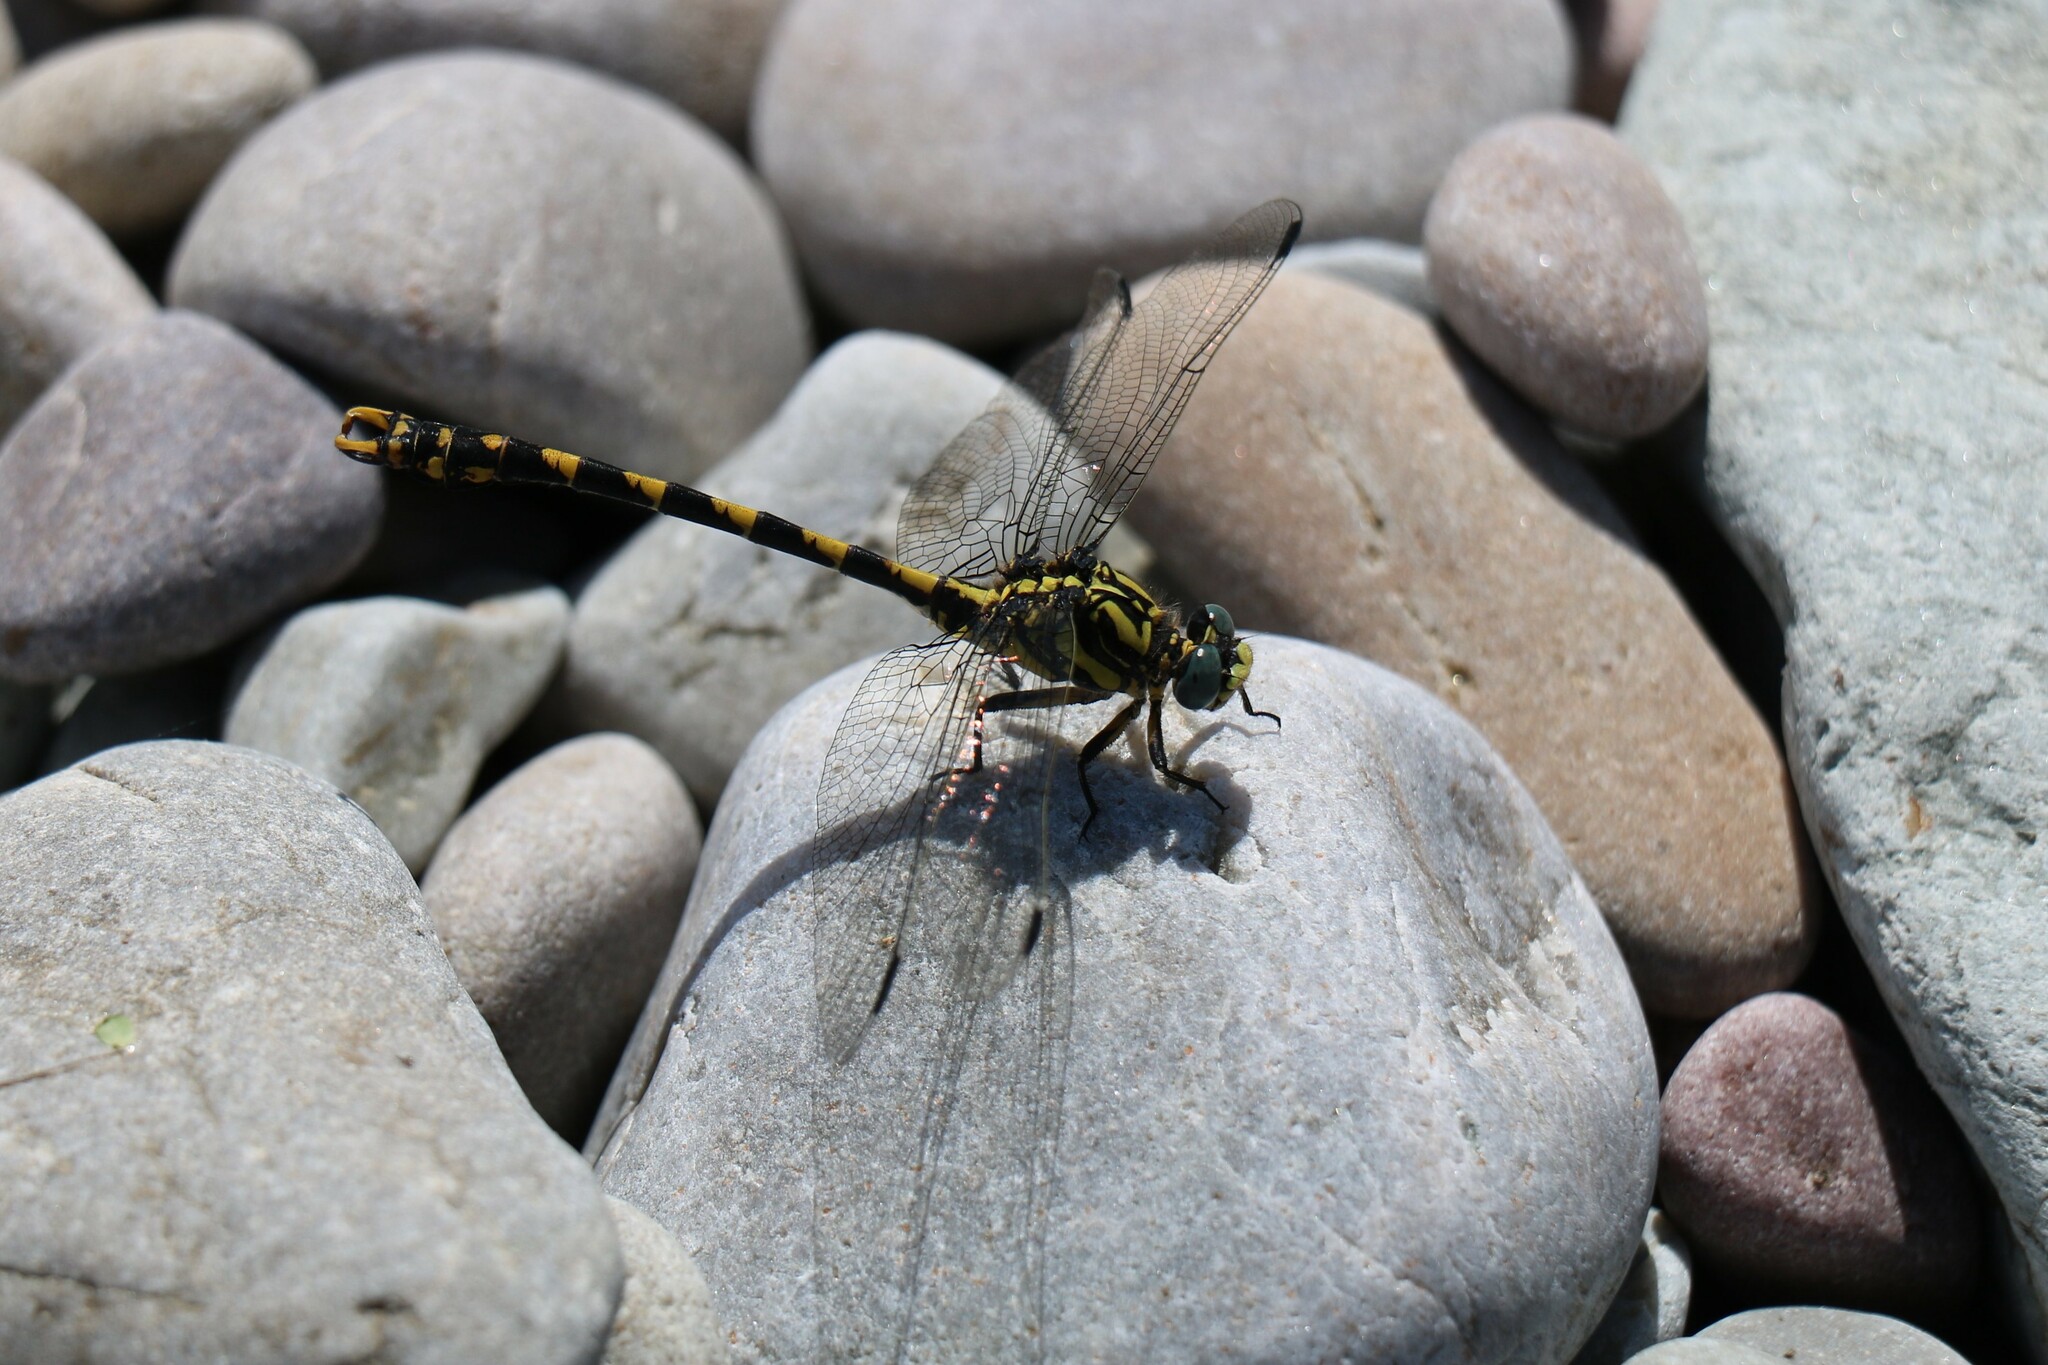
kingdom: Animalia
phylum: Arthropoda
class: Insecta
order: Odonata
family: Gomphidae
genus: Onychogomphus
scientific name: Onychogomphus uncatus
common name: Large pincertail
